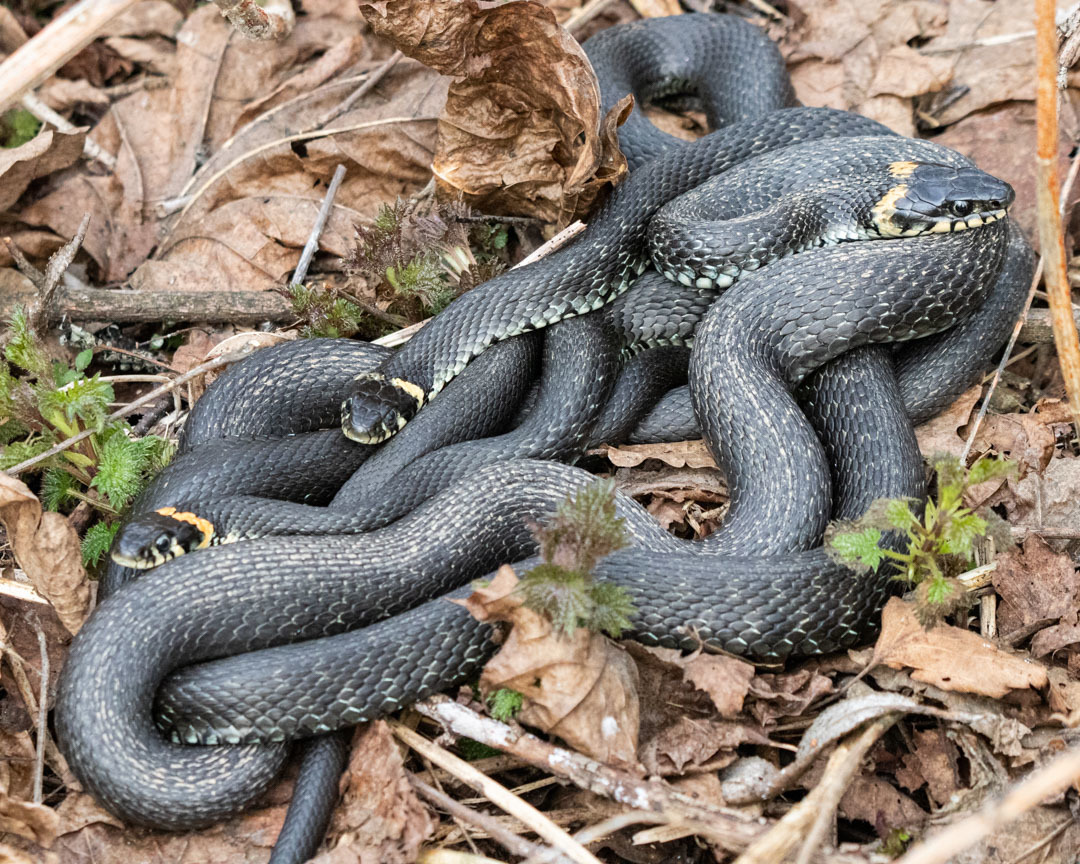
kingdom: Animalia
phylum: Chordata
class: Squamata
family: Colubridae
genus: Natrix
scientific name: Natrix natrix
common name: Grass snake
